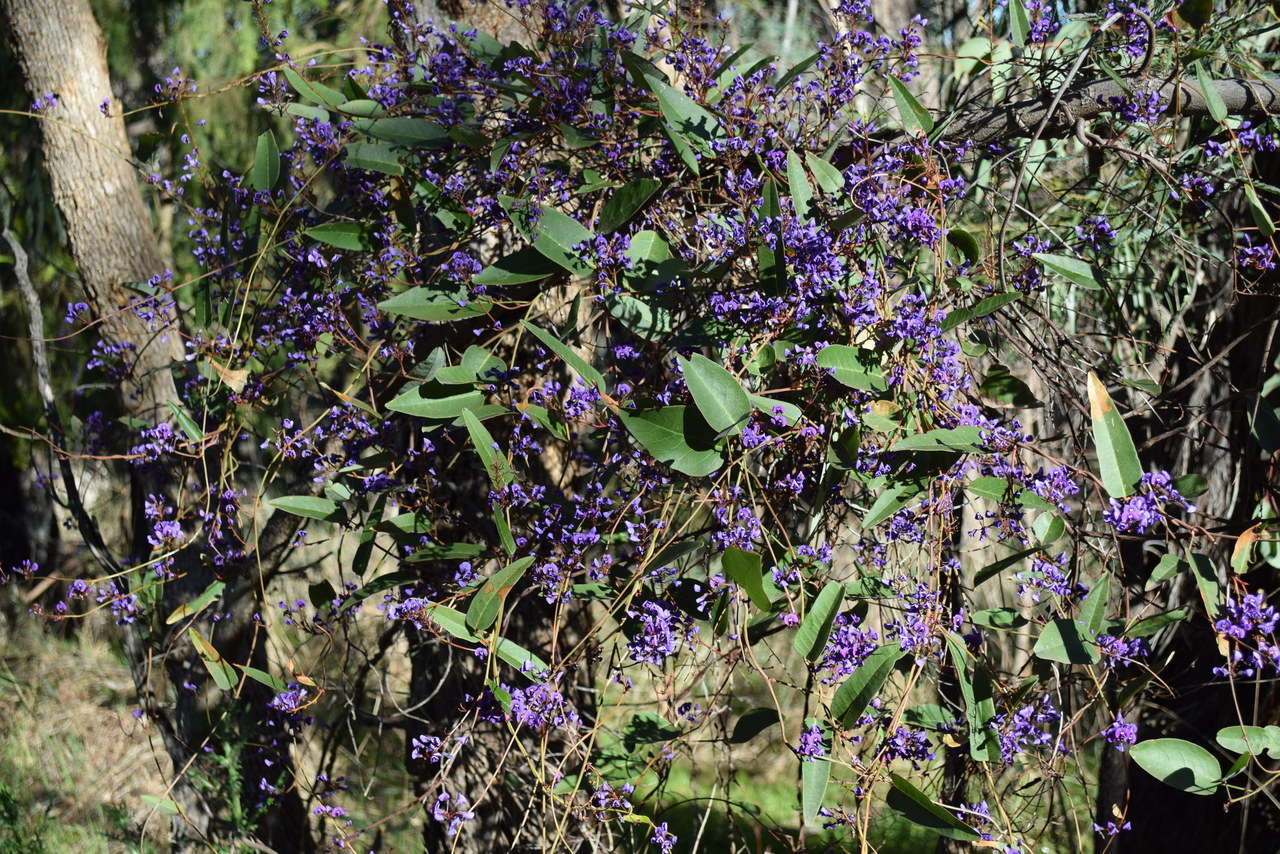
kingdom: Plantae
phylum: Tracheophyta
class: Magnoliopsida
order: Fabales
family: Fabaceae
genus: Hardenbergia
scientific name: Hardenbergia violacea
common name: Coral-pea
